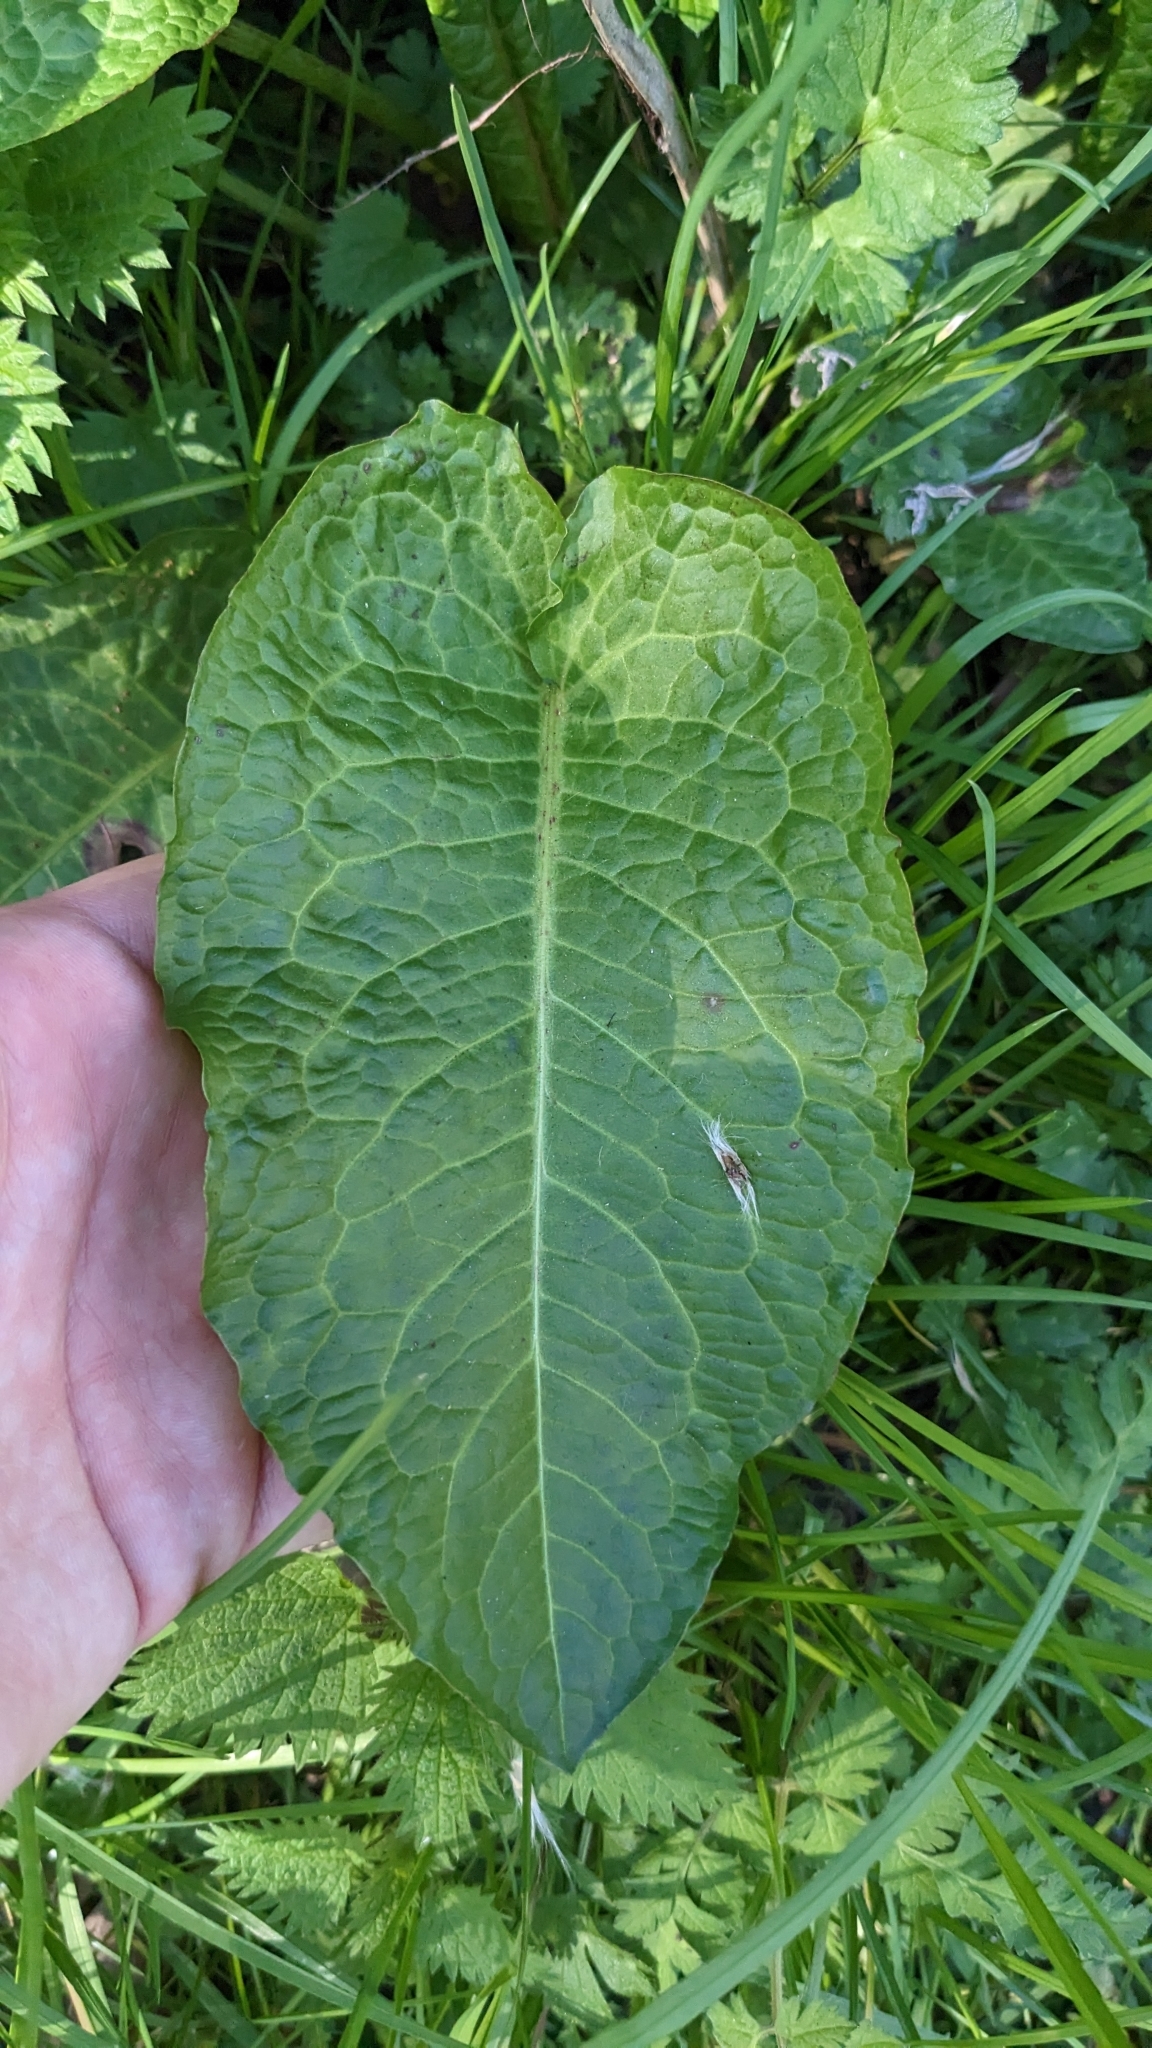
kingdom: Plantae
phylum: Tracheophyta
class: Magnoliopsida
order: Caryophyllales
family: Polygonaceae
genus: Rumex
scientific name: Rumex obtusifolius
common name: Bitter dock
